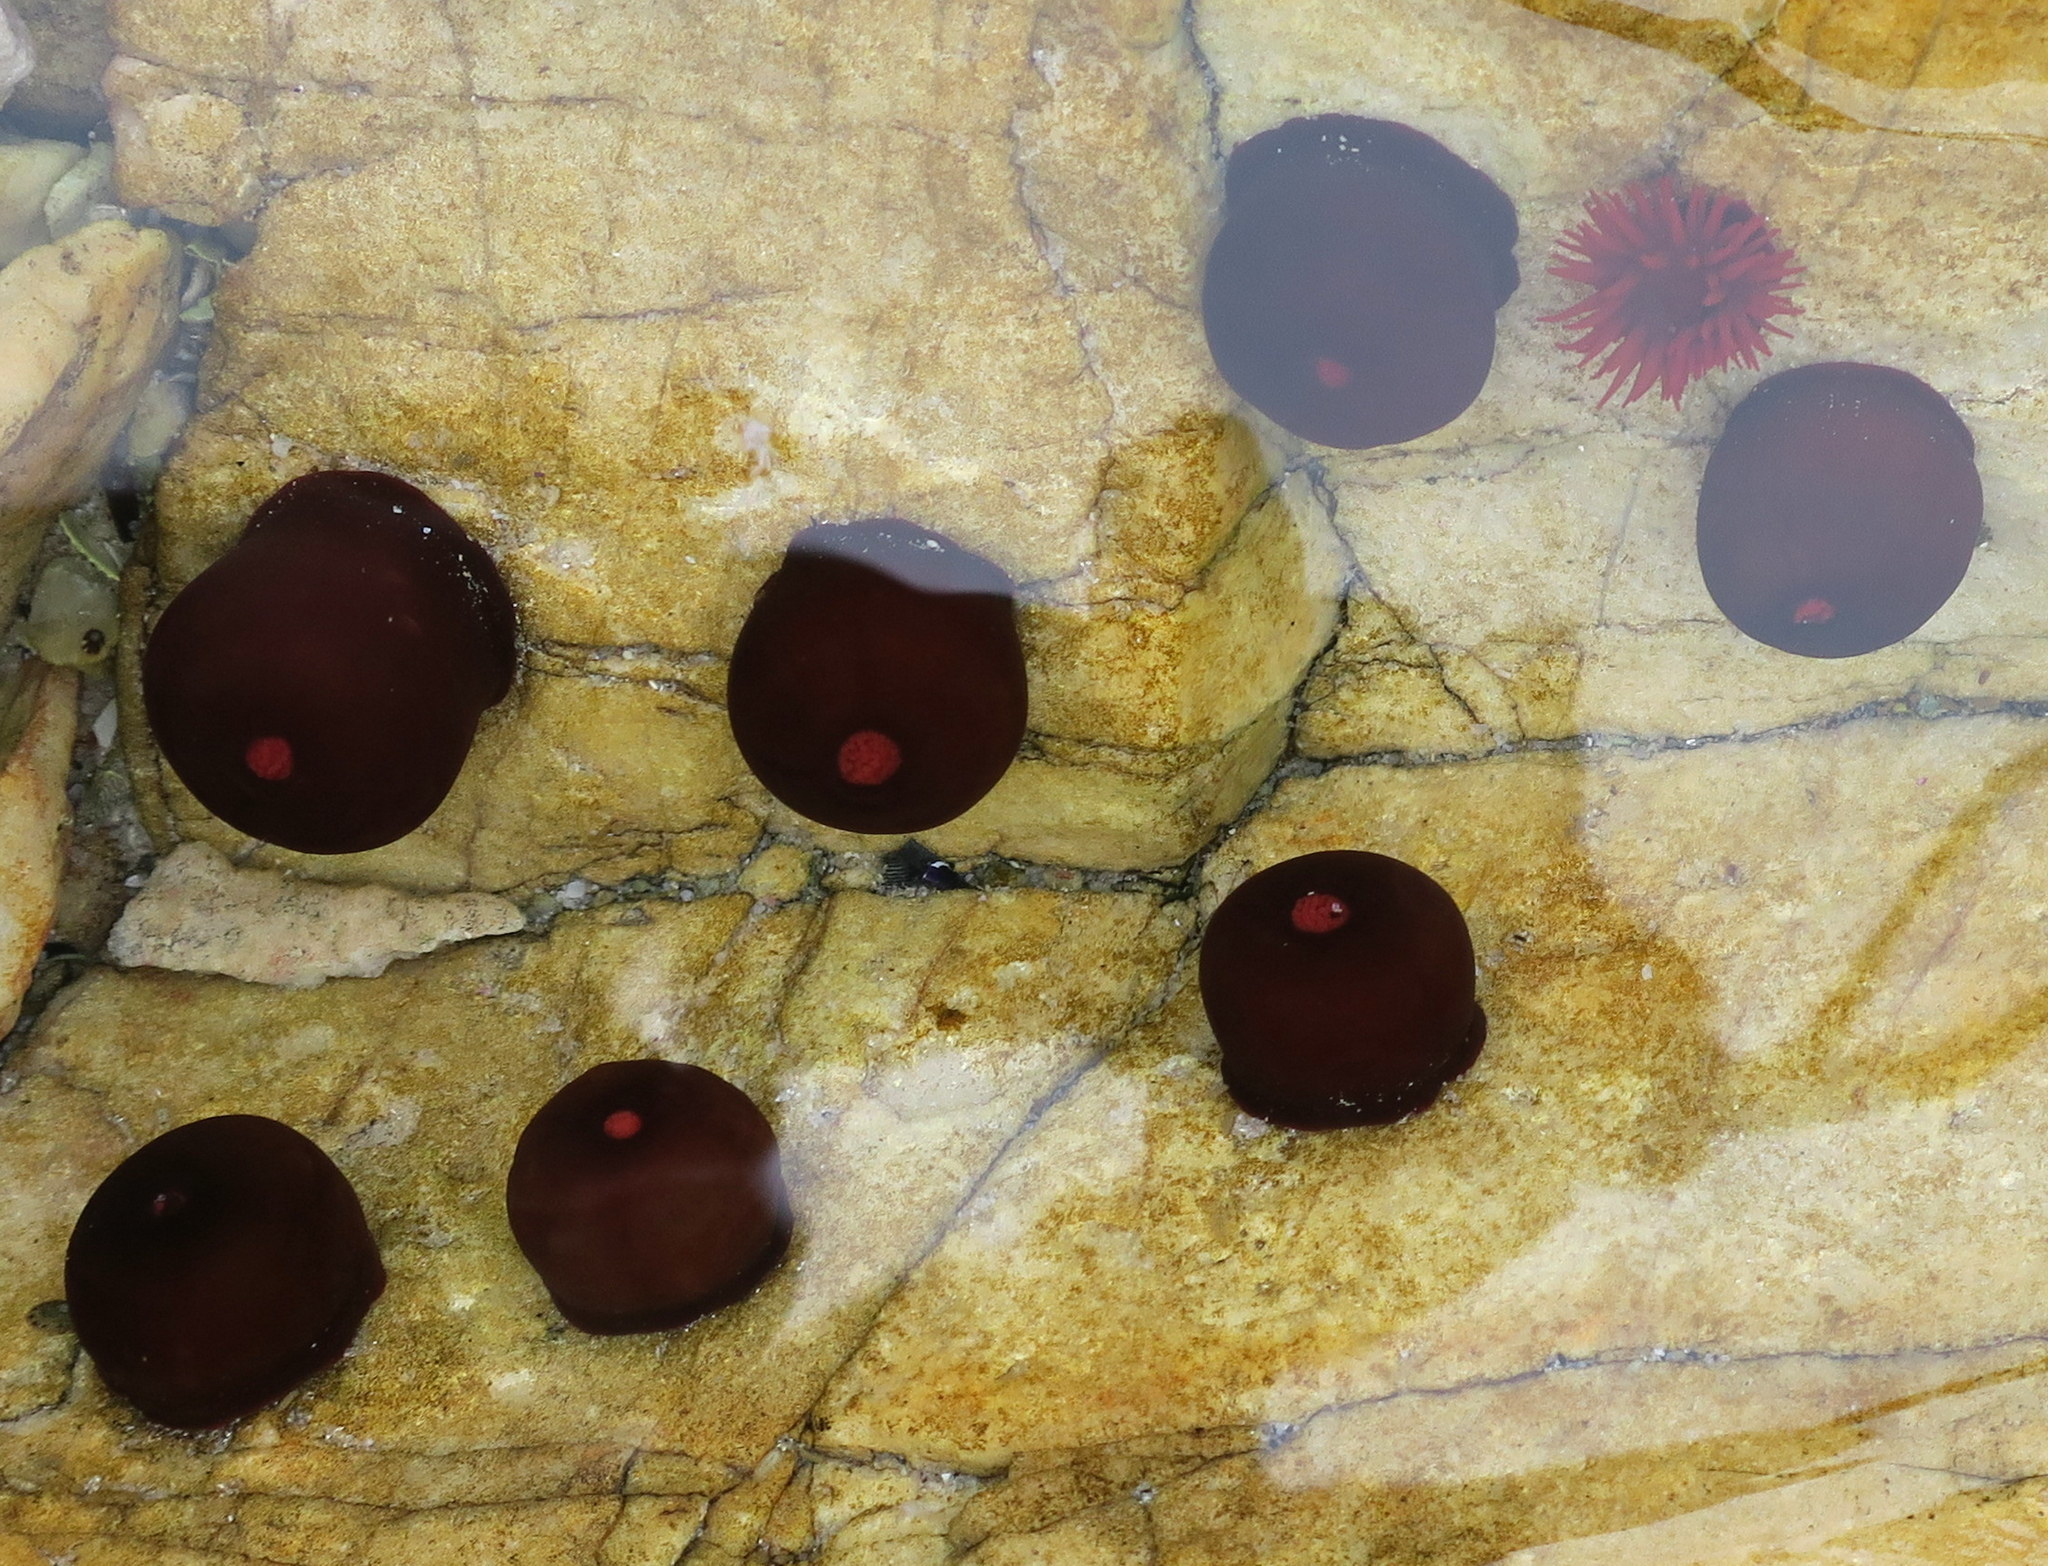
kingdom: Animalia
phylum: Cnidaria
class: Anthozoa
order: Actiniaria
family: Actiniidae
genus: Actinia
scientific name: Actinia tenebrosa
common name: Waratah anemone
